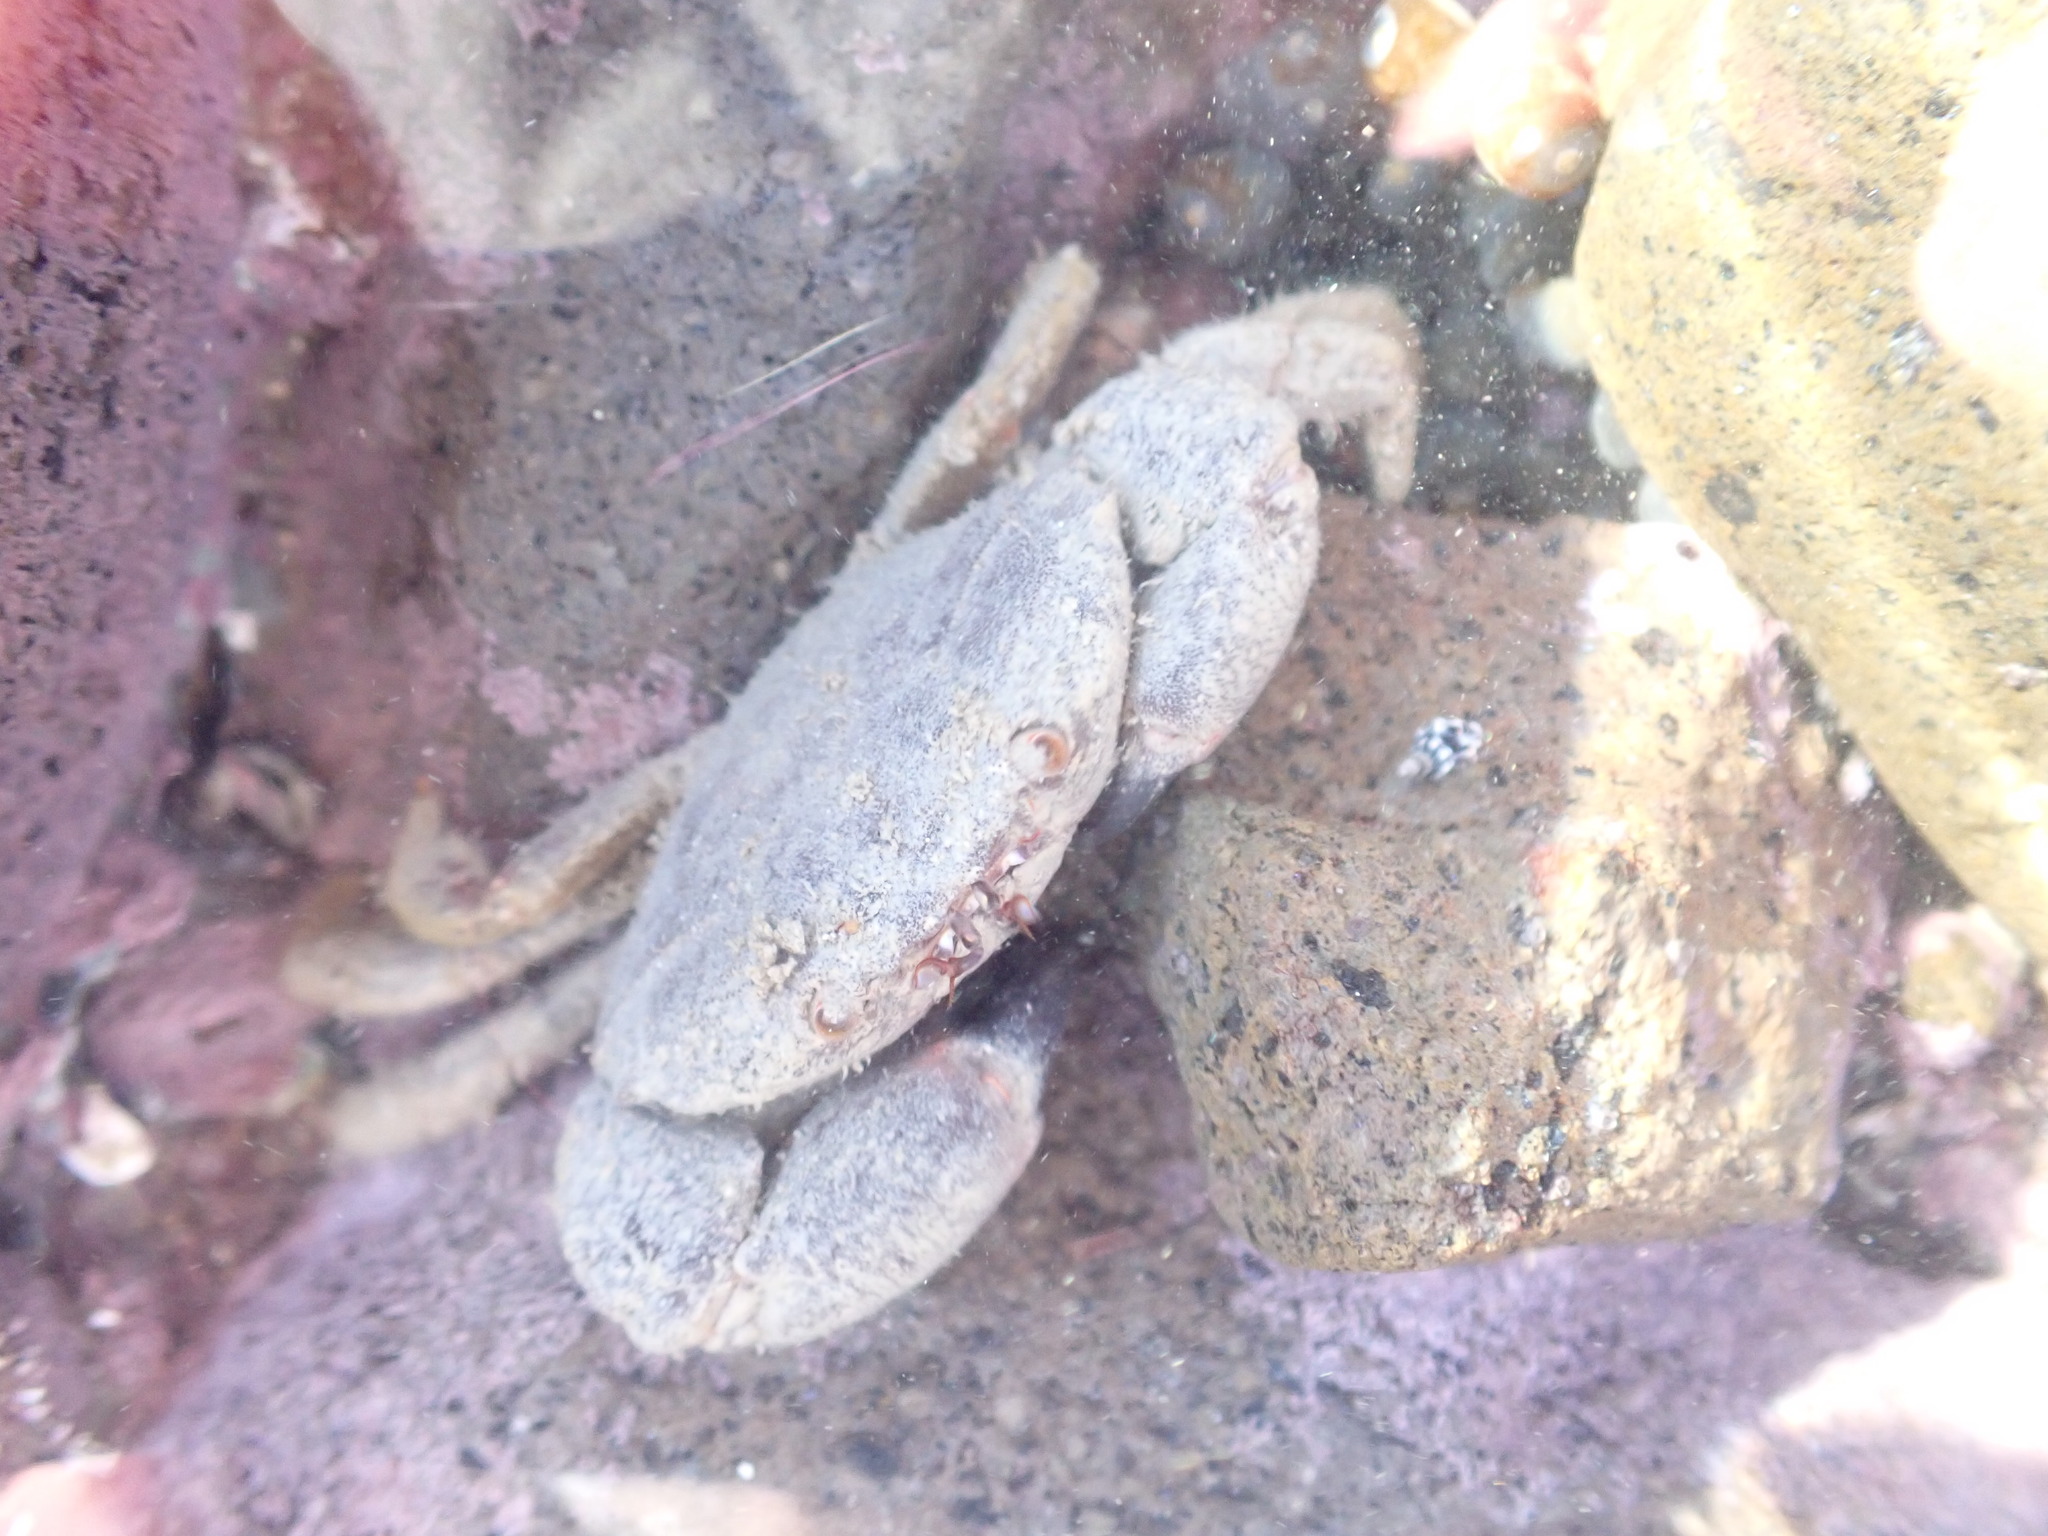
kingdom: Animalia
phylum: Arthropoda
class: Malacostraca
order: Decapoda
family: Oziidae
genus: Ozius
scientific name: Ozius deplanatus
